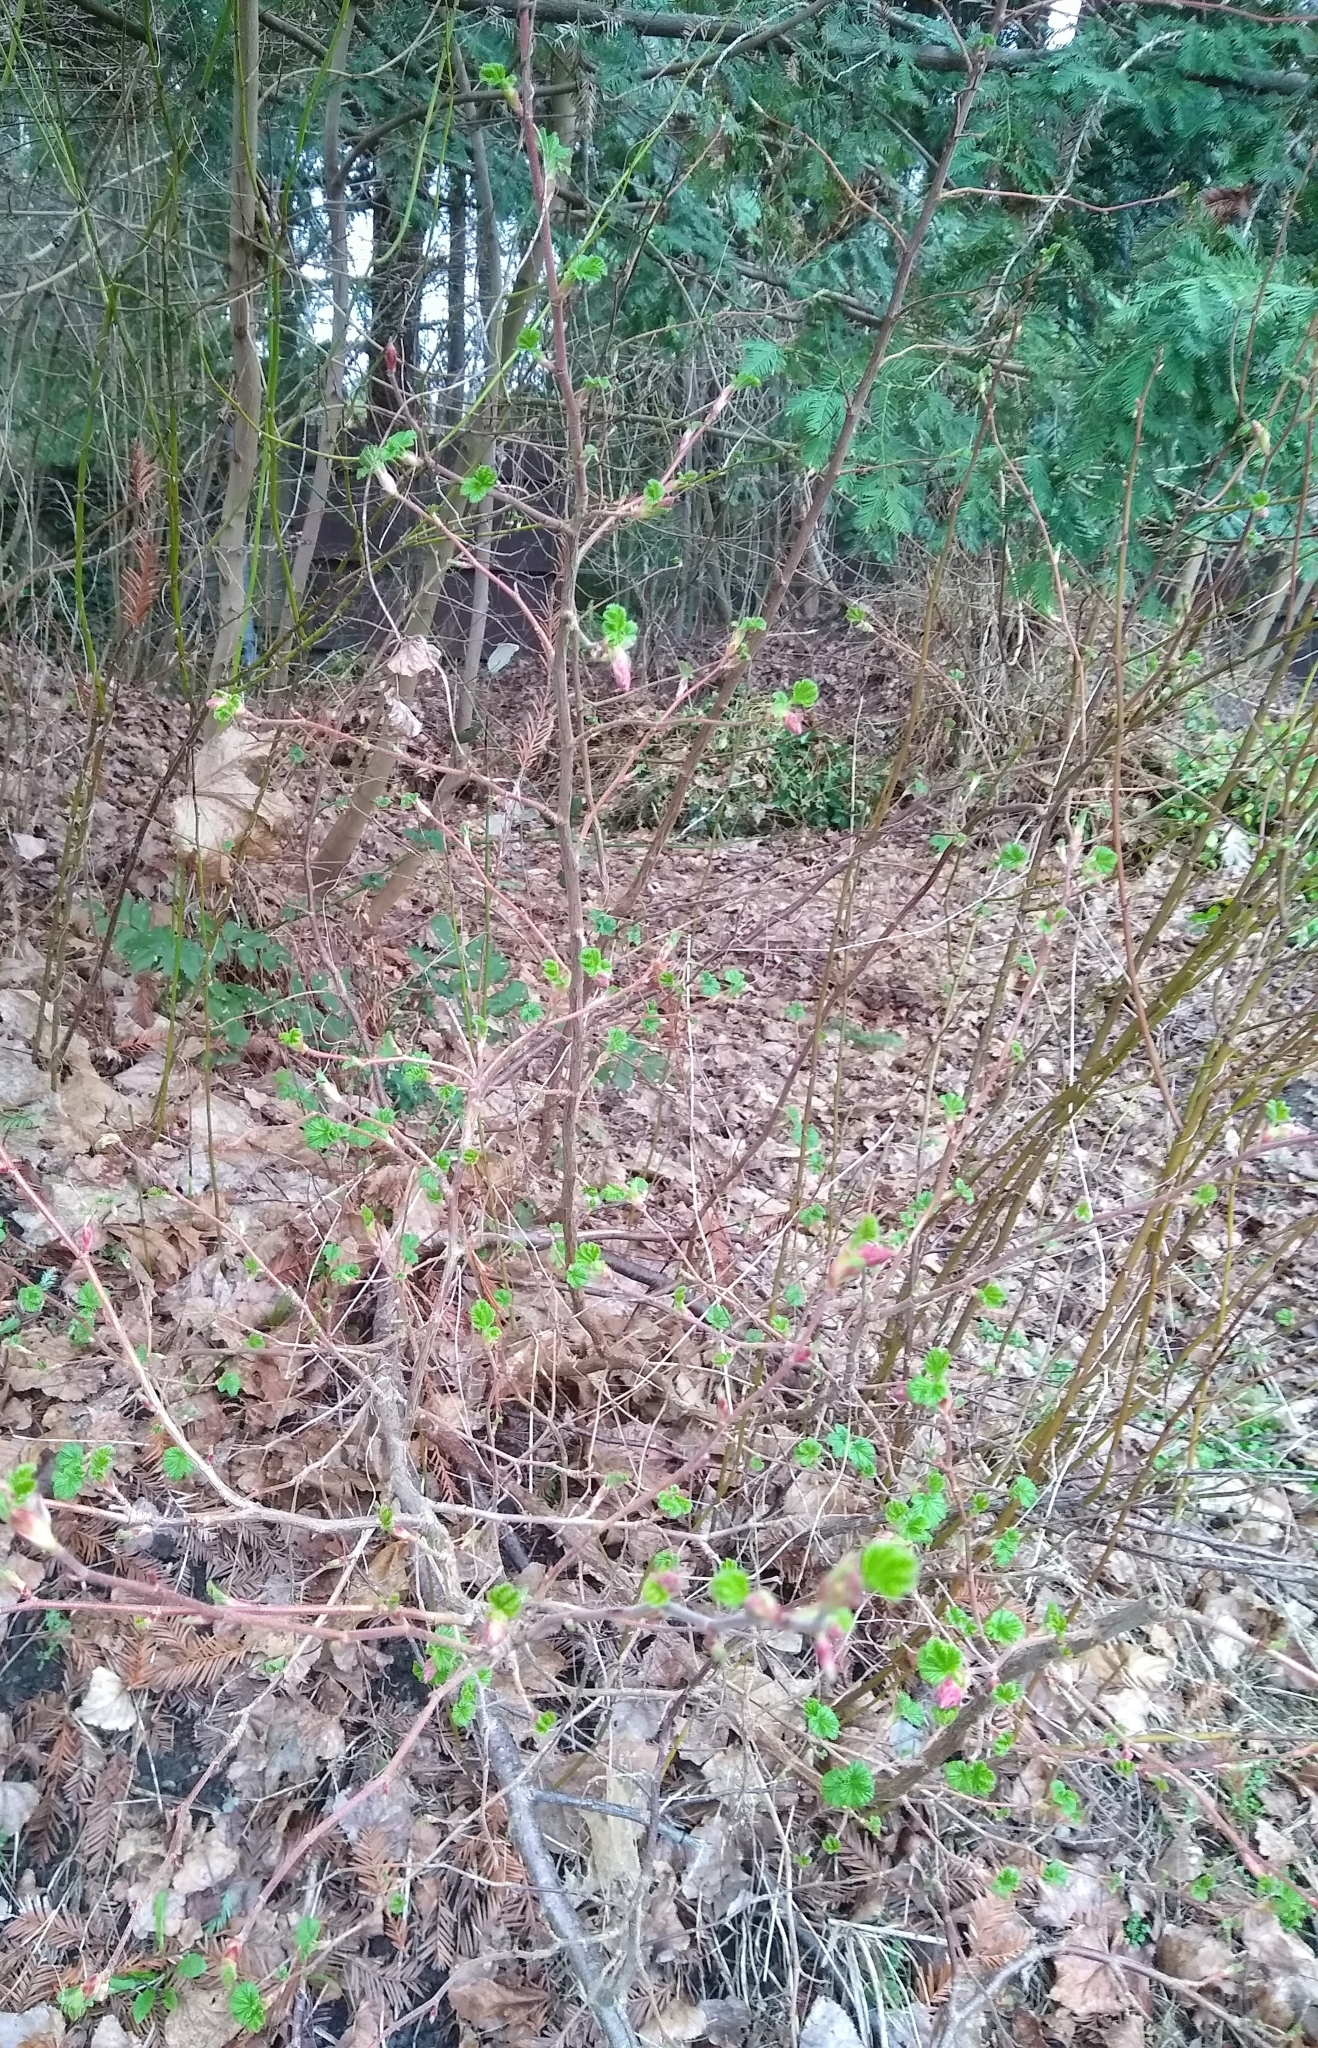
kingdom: Plantae
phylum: Tracheophyta
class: Magnoliopsida
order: Saxifragales
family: Grossulariaceae
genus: Ribes
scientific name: Ribes sanguineum
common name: Flowering currant
